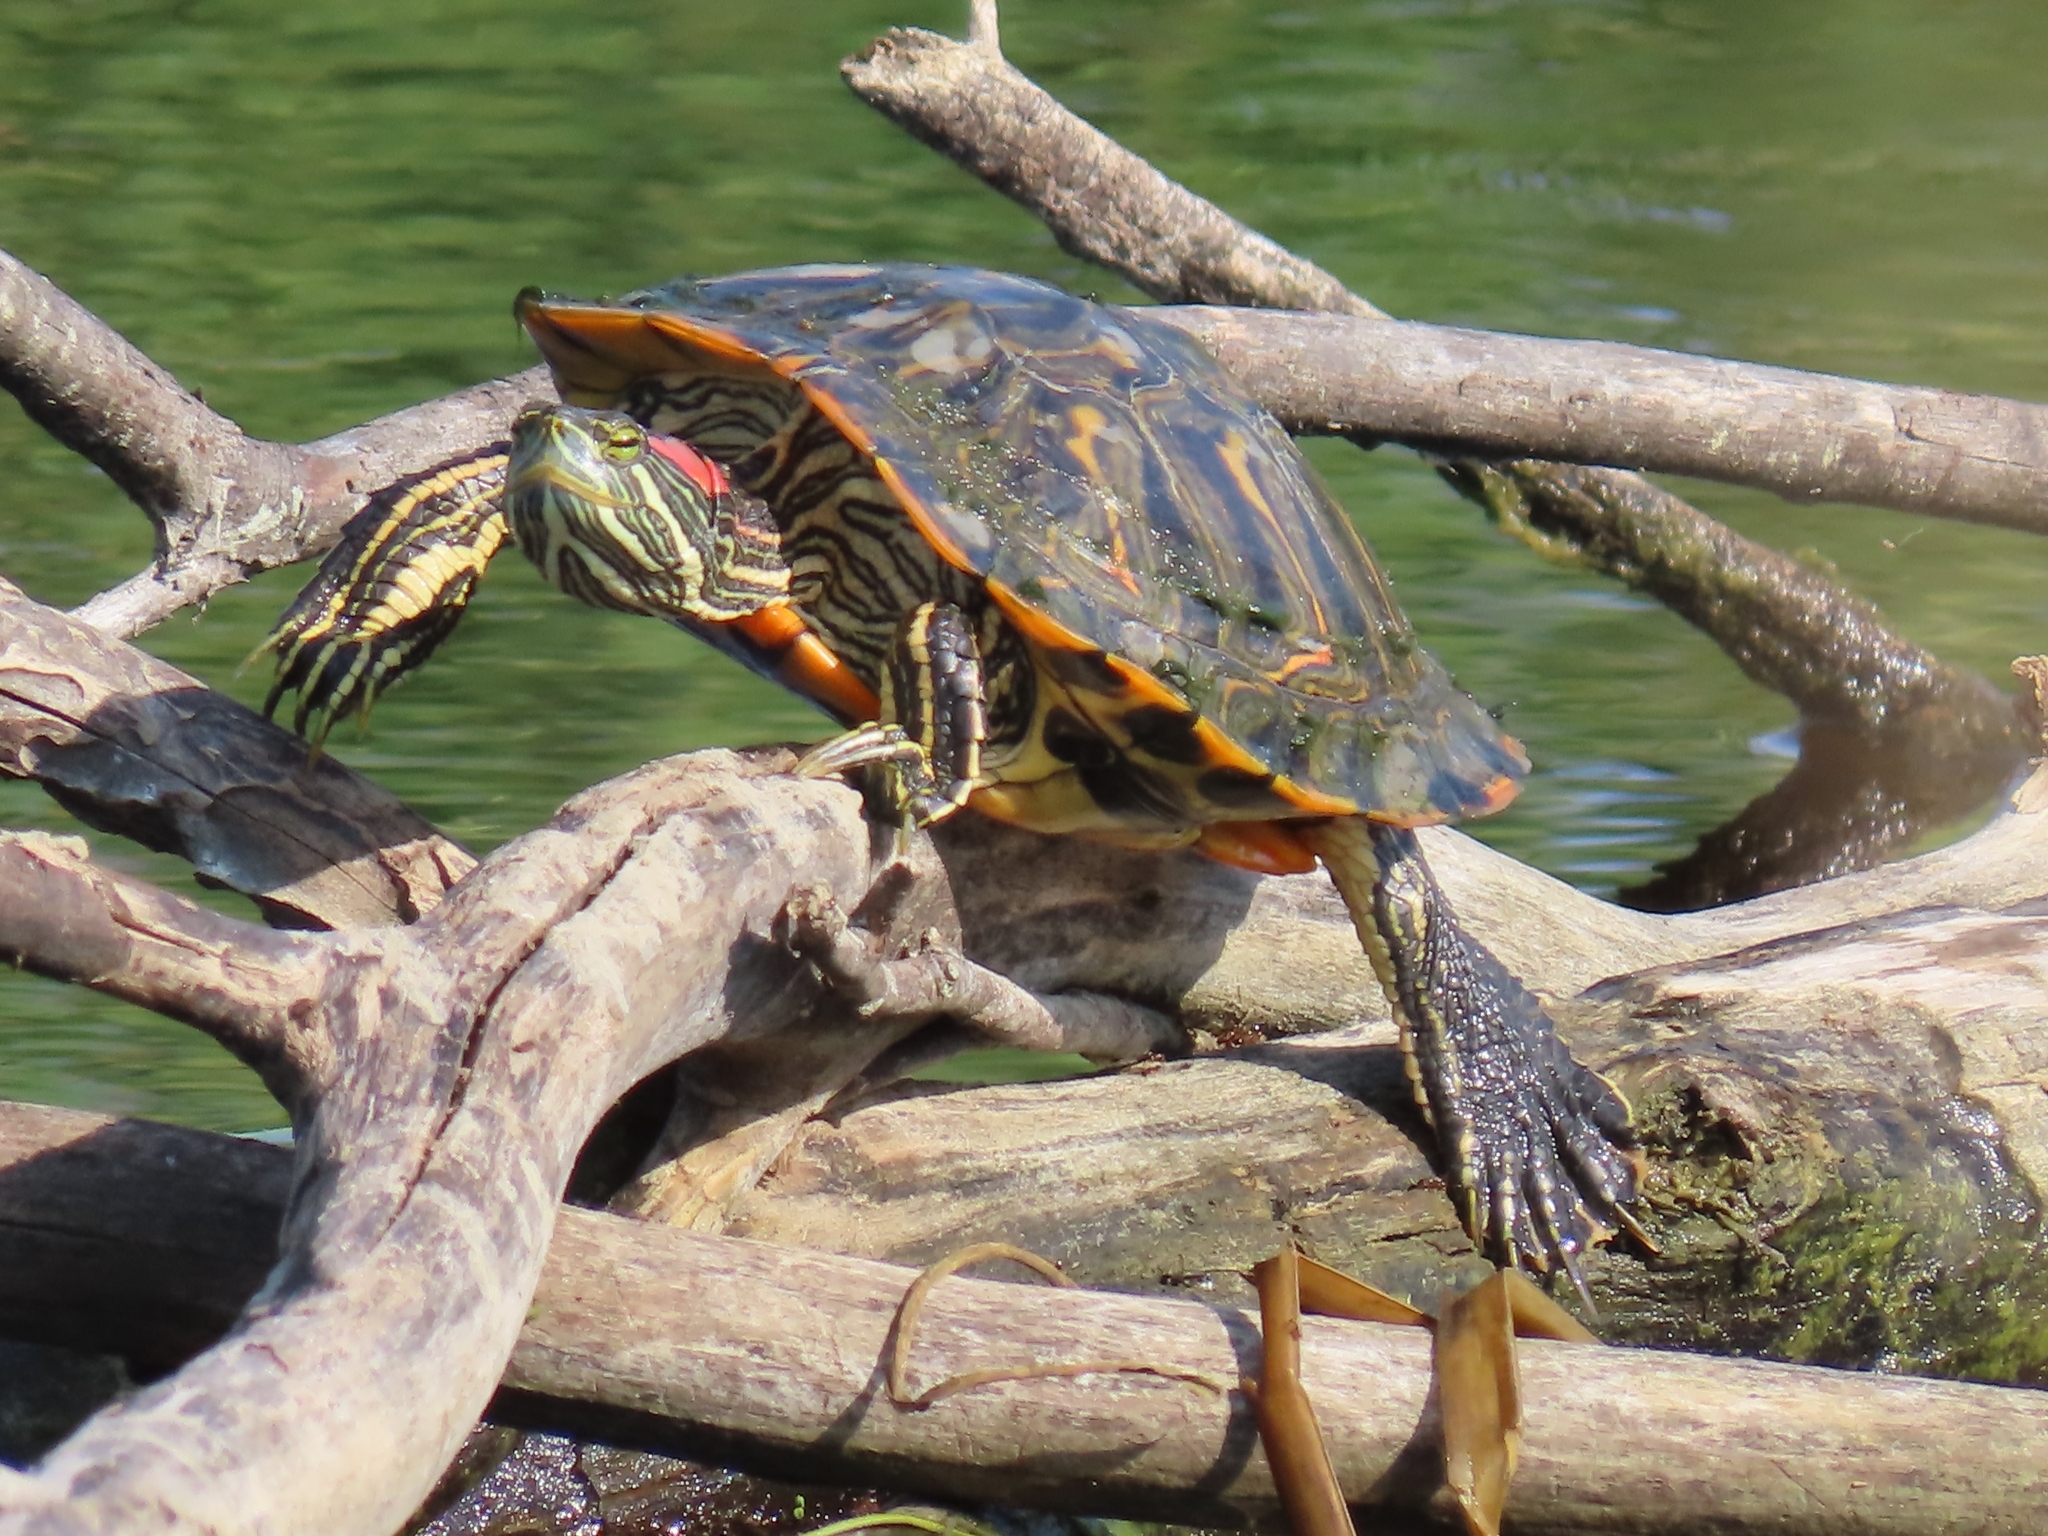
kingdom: Animalia
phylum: Chordata
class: Testudines
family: Emydidae
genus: Trachemys
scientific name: Trachemys scripta
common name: Slider
